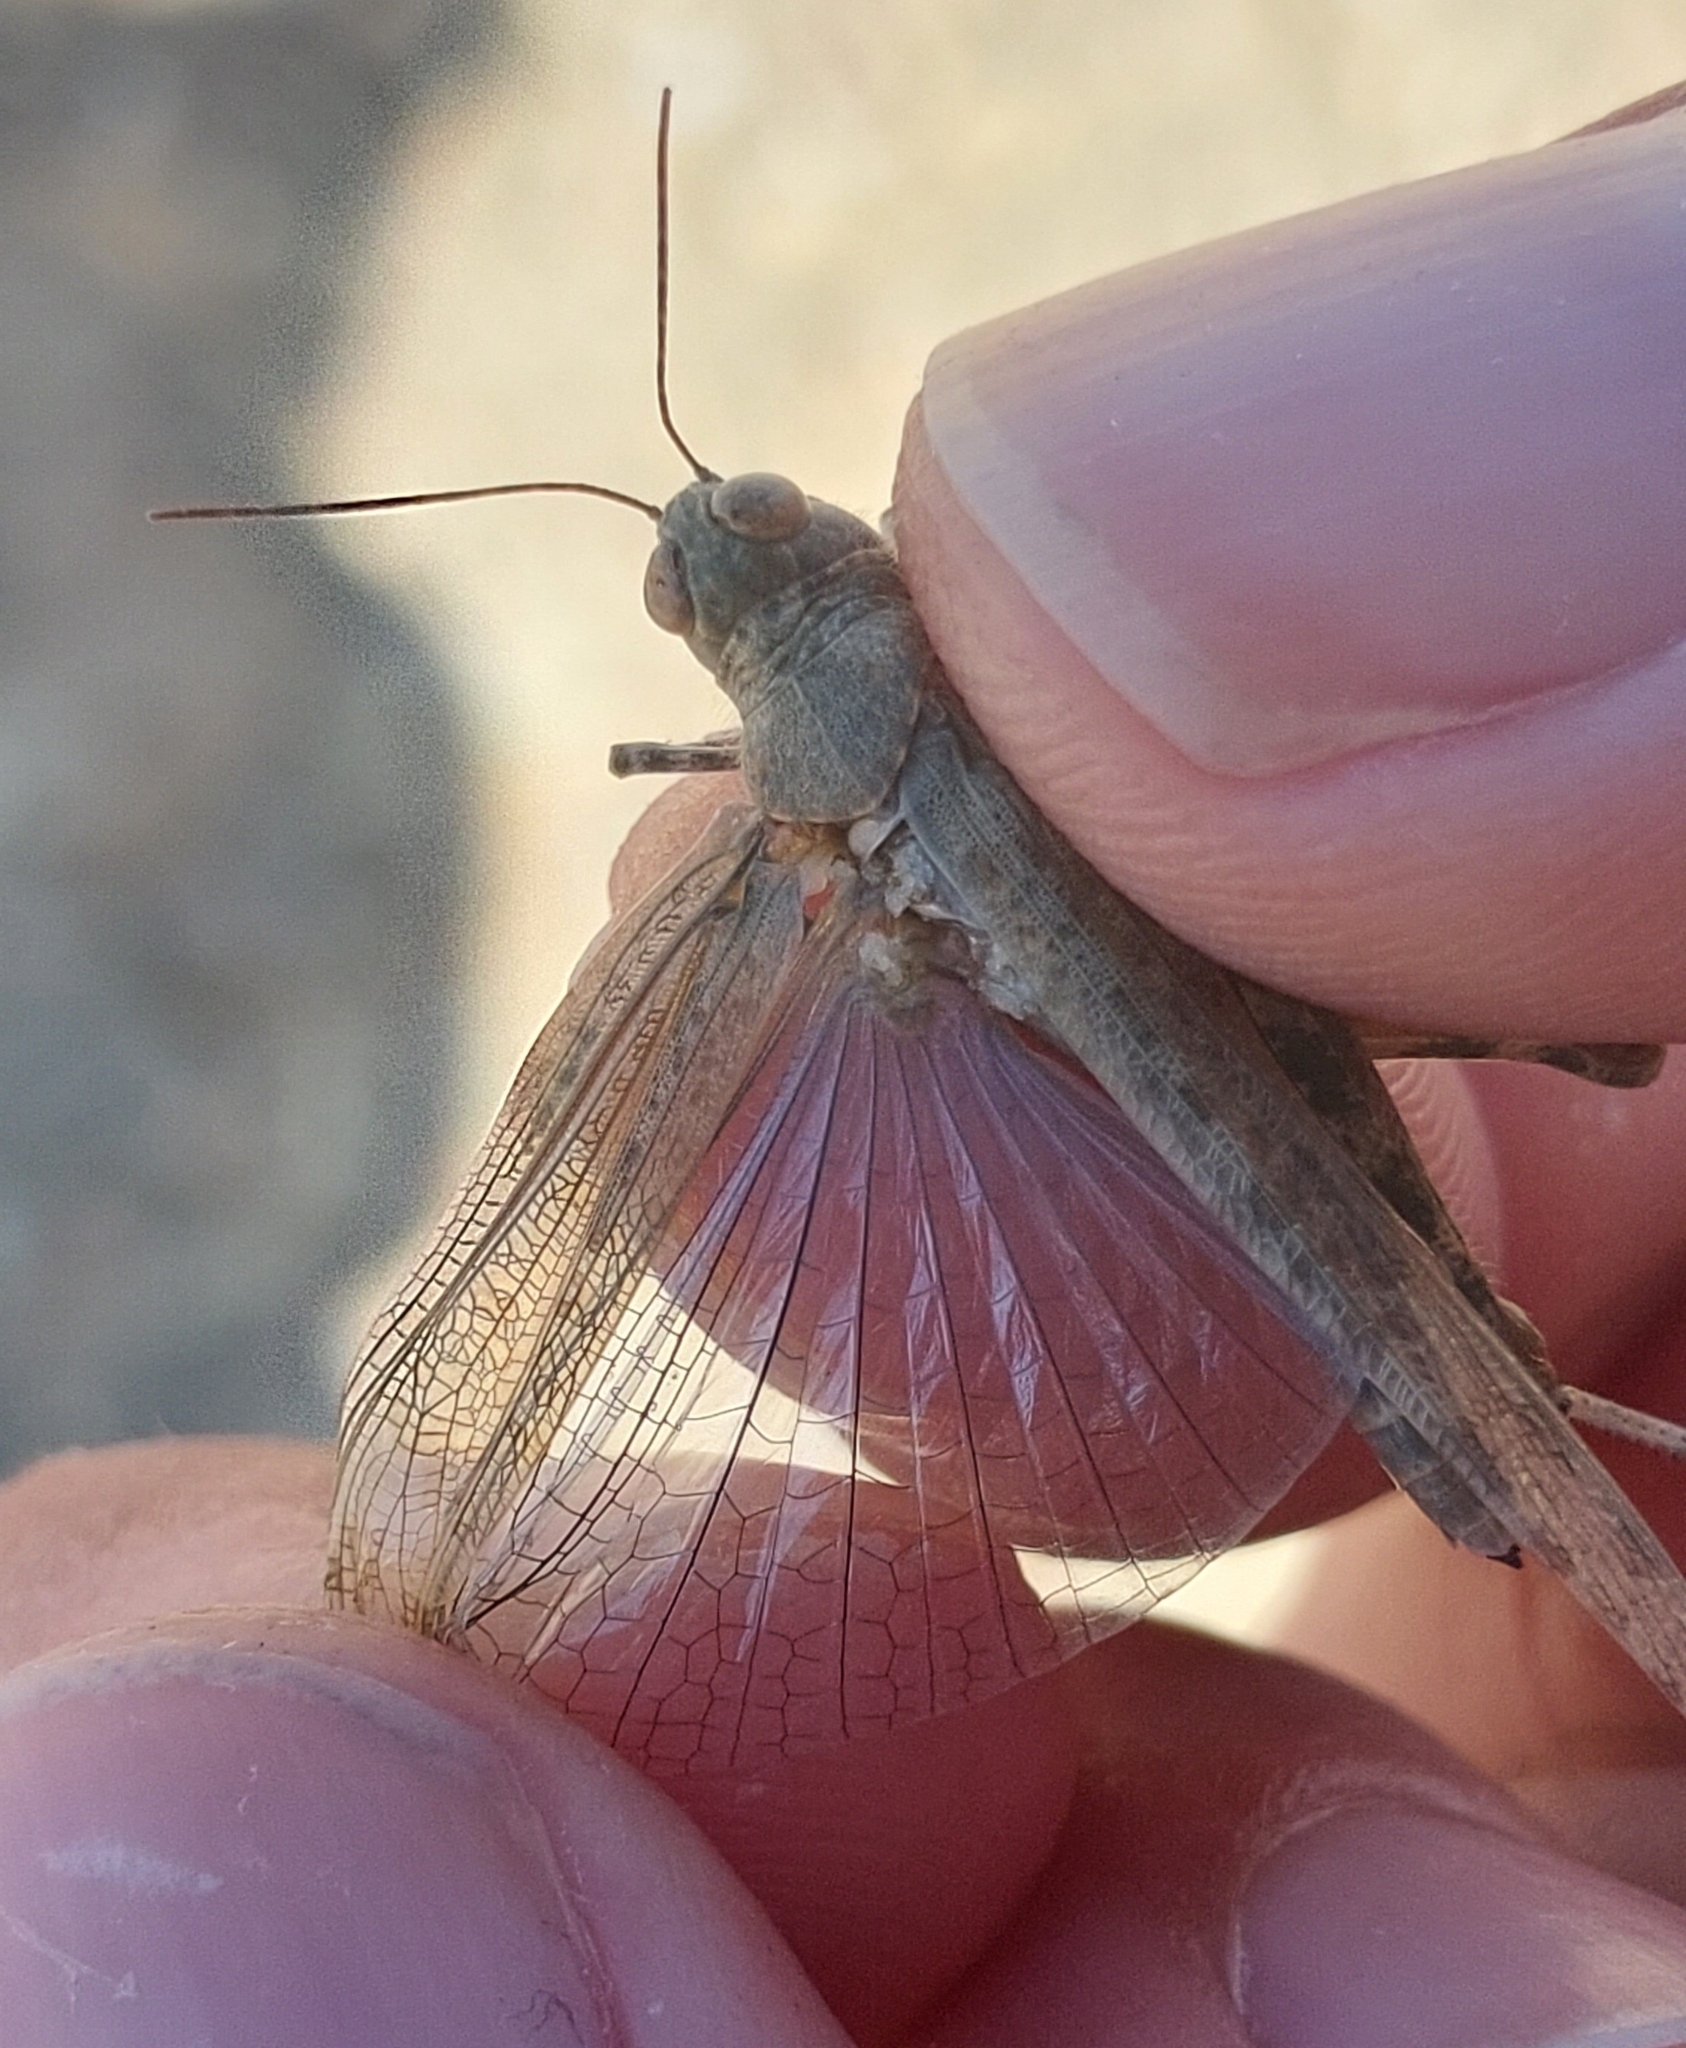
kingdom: Animalia
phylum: Arthropoda
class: Insecta
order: Orthoptera
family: Acrididae
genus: Sphingonotus
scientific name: Sphingonotus rubescens
